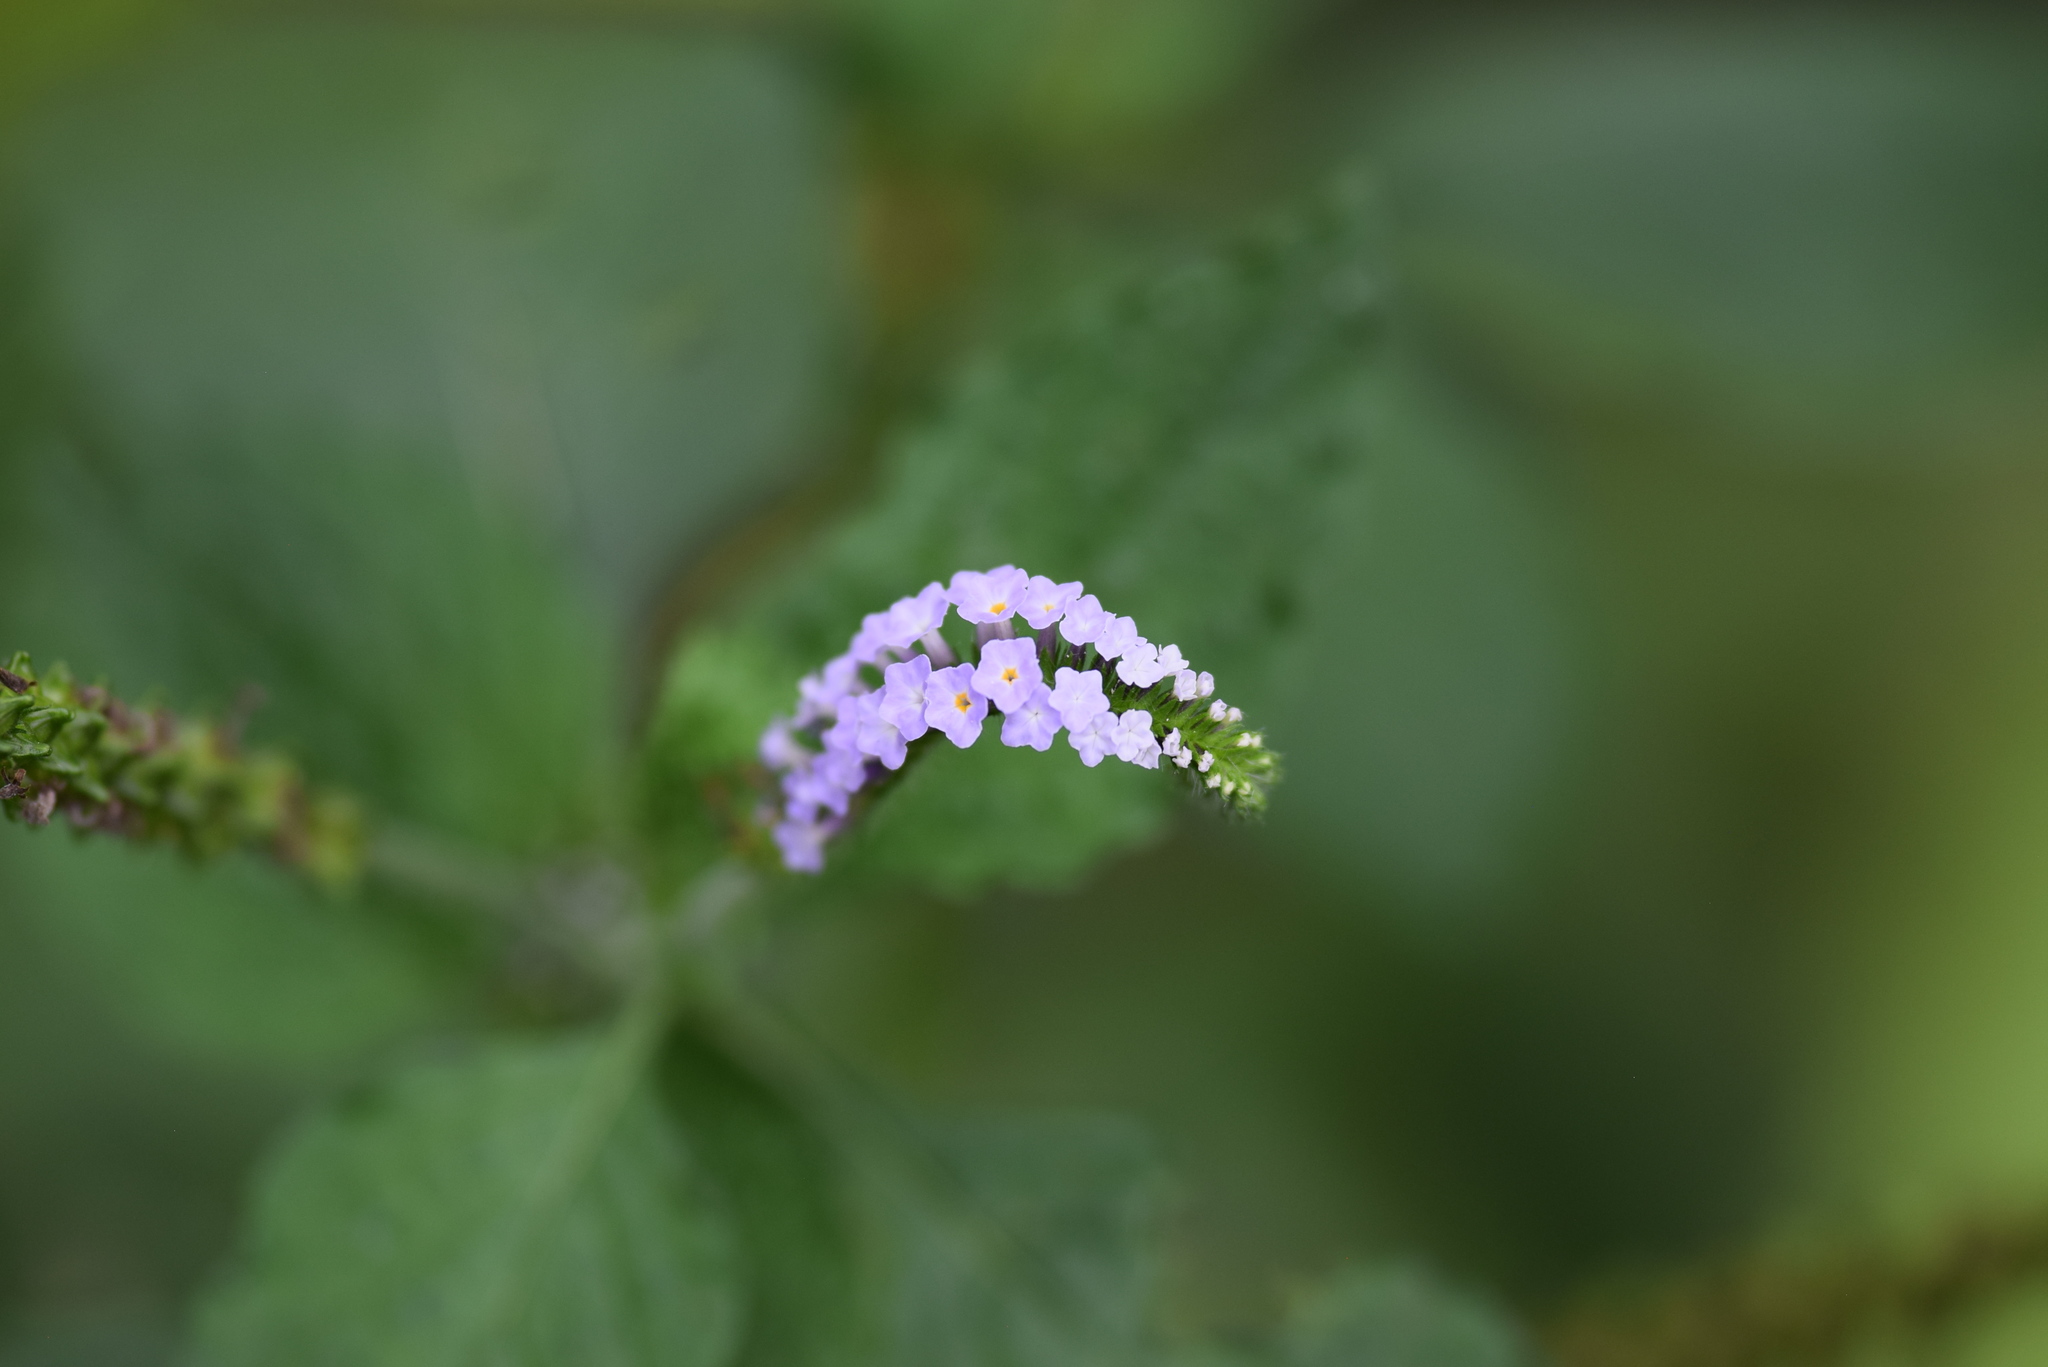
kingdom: Plantae
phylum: Tracheophyta
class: Magnoliopsida
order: Boraginales
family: Heliotropiaceae
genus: Heliotropium
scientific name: Heliotropium indicum
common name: Indian heliotrope
